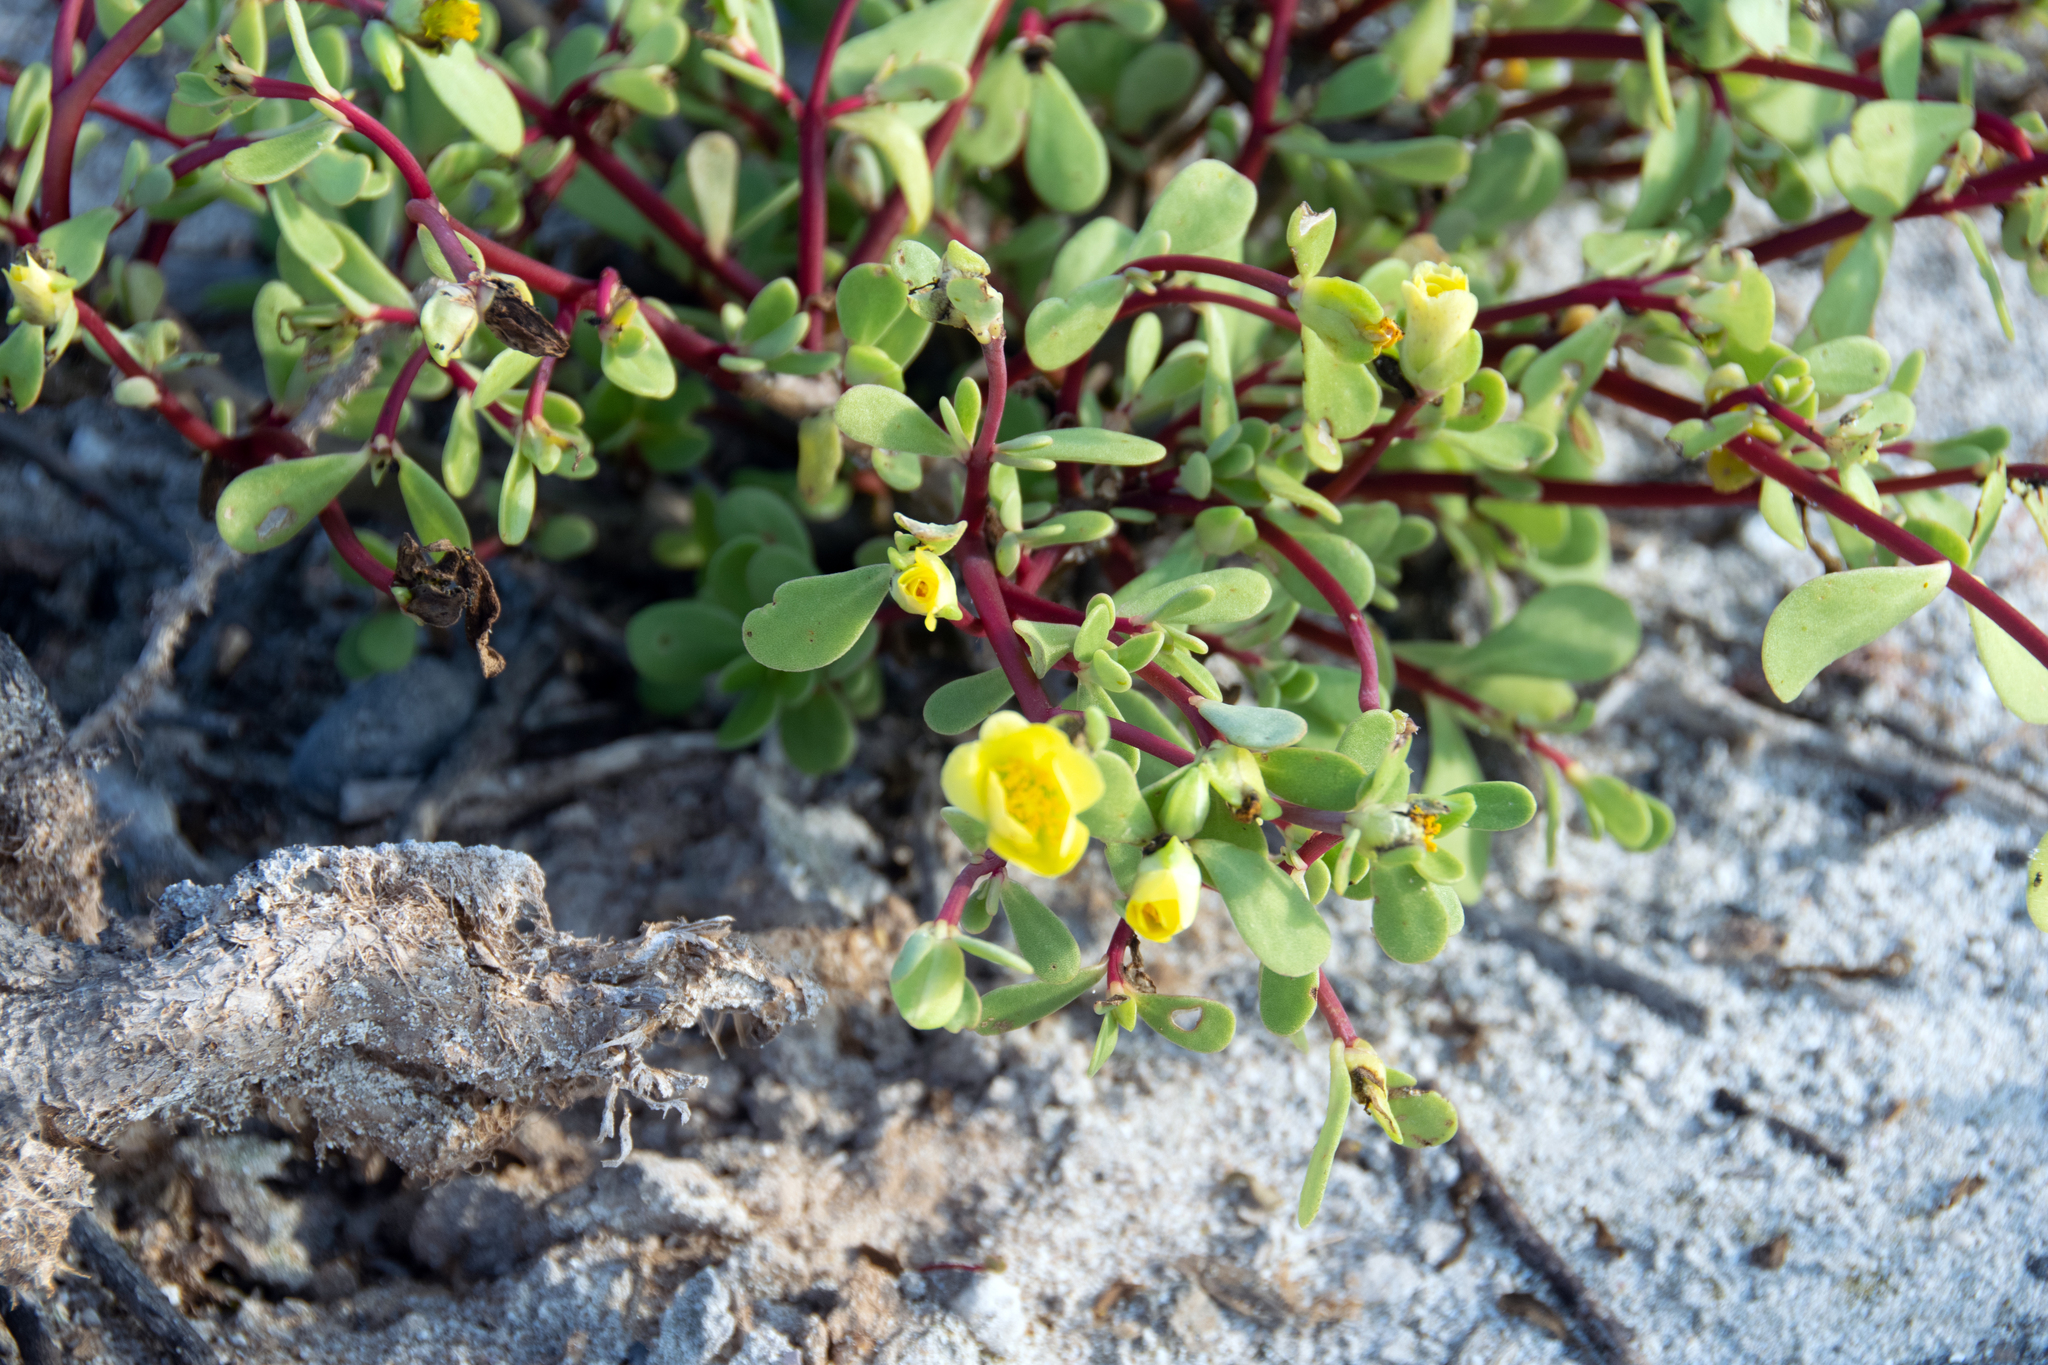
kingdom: Plantae
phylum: Tracheophyta
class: Magnoliopsida
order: Caryophyllales
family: Portulacaceae
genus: Portulaca
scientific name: Portulaca howellii
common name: Galapagos purslane
